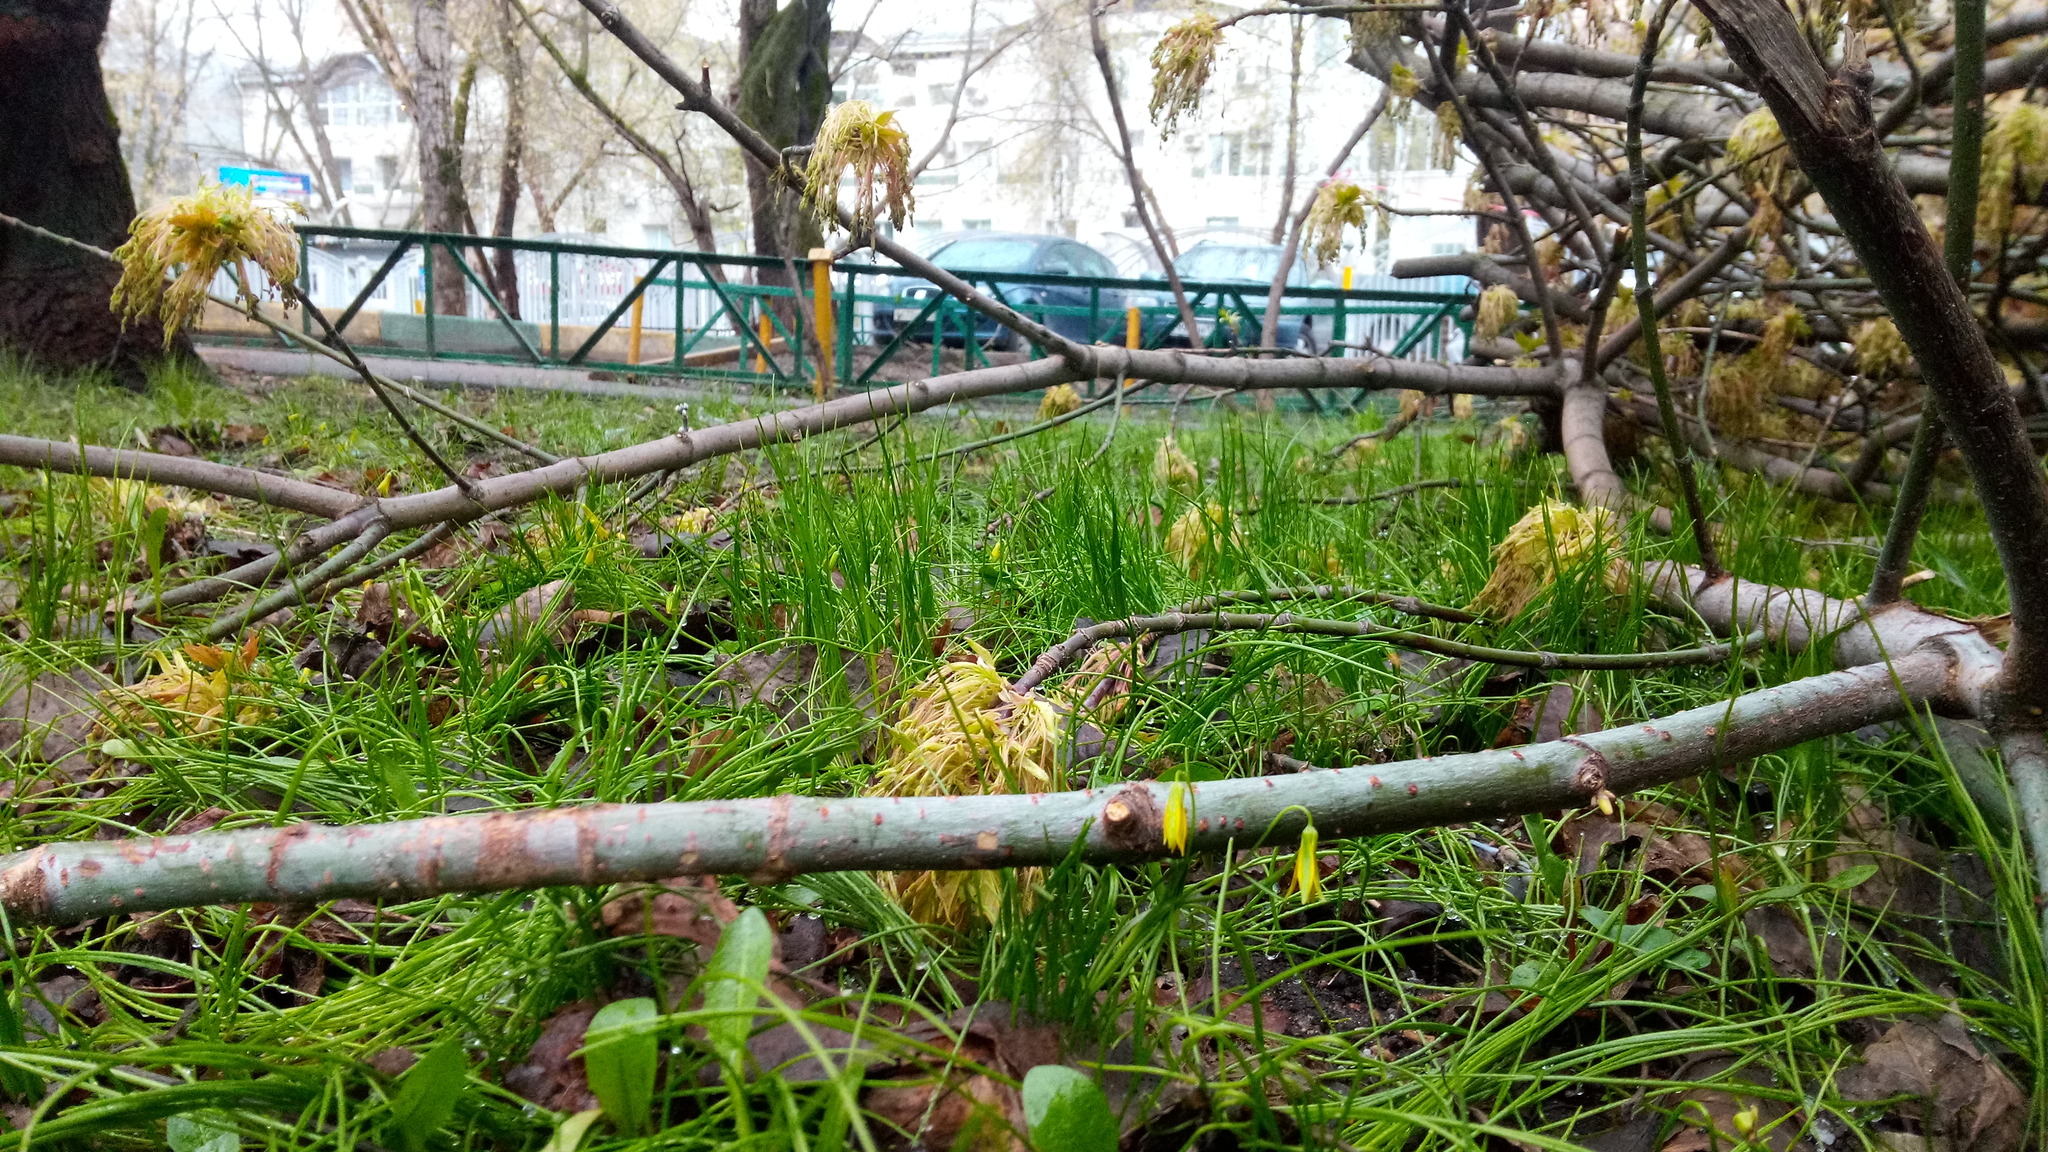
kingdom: Plantae
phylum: Tracheophyta
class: Liliopsida
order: Liliales
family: Liliaceae
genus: Gagea
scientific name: Gagea minima
